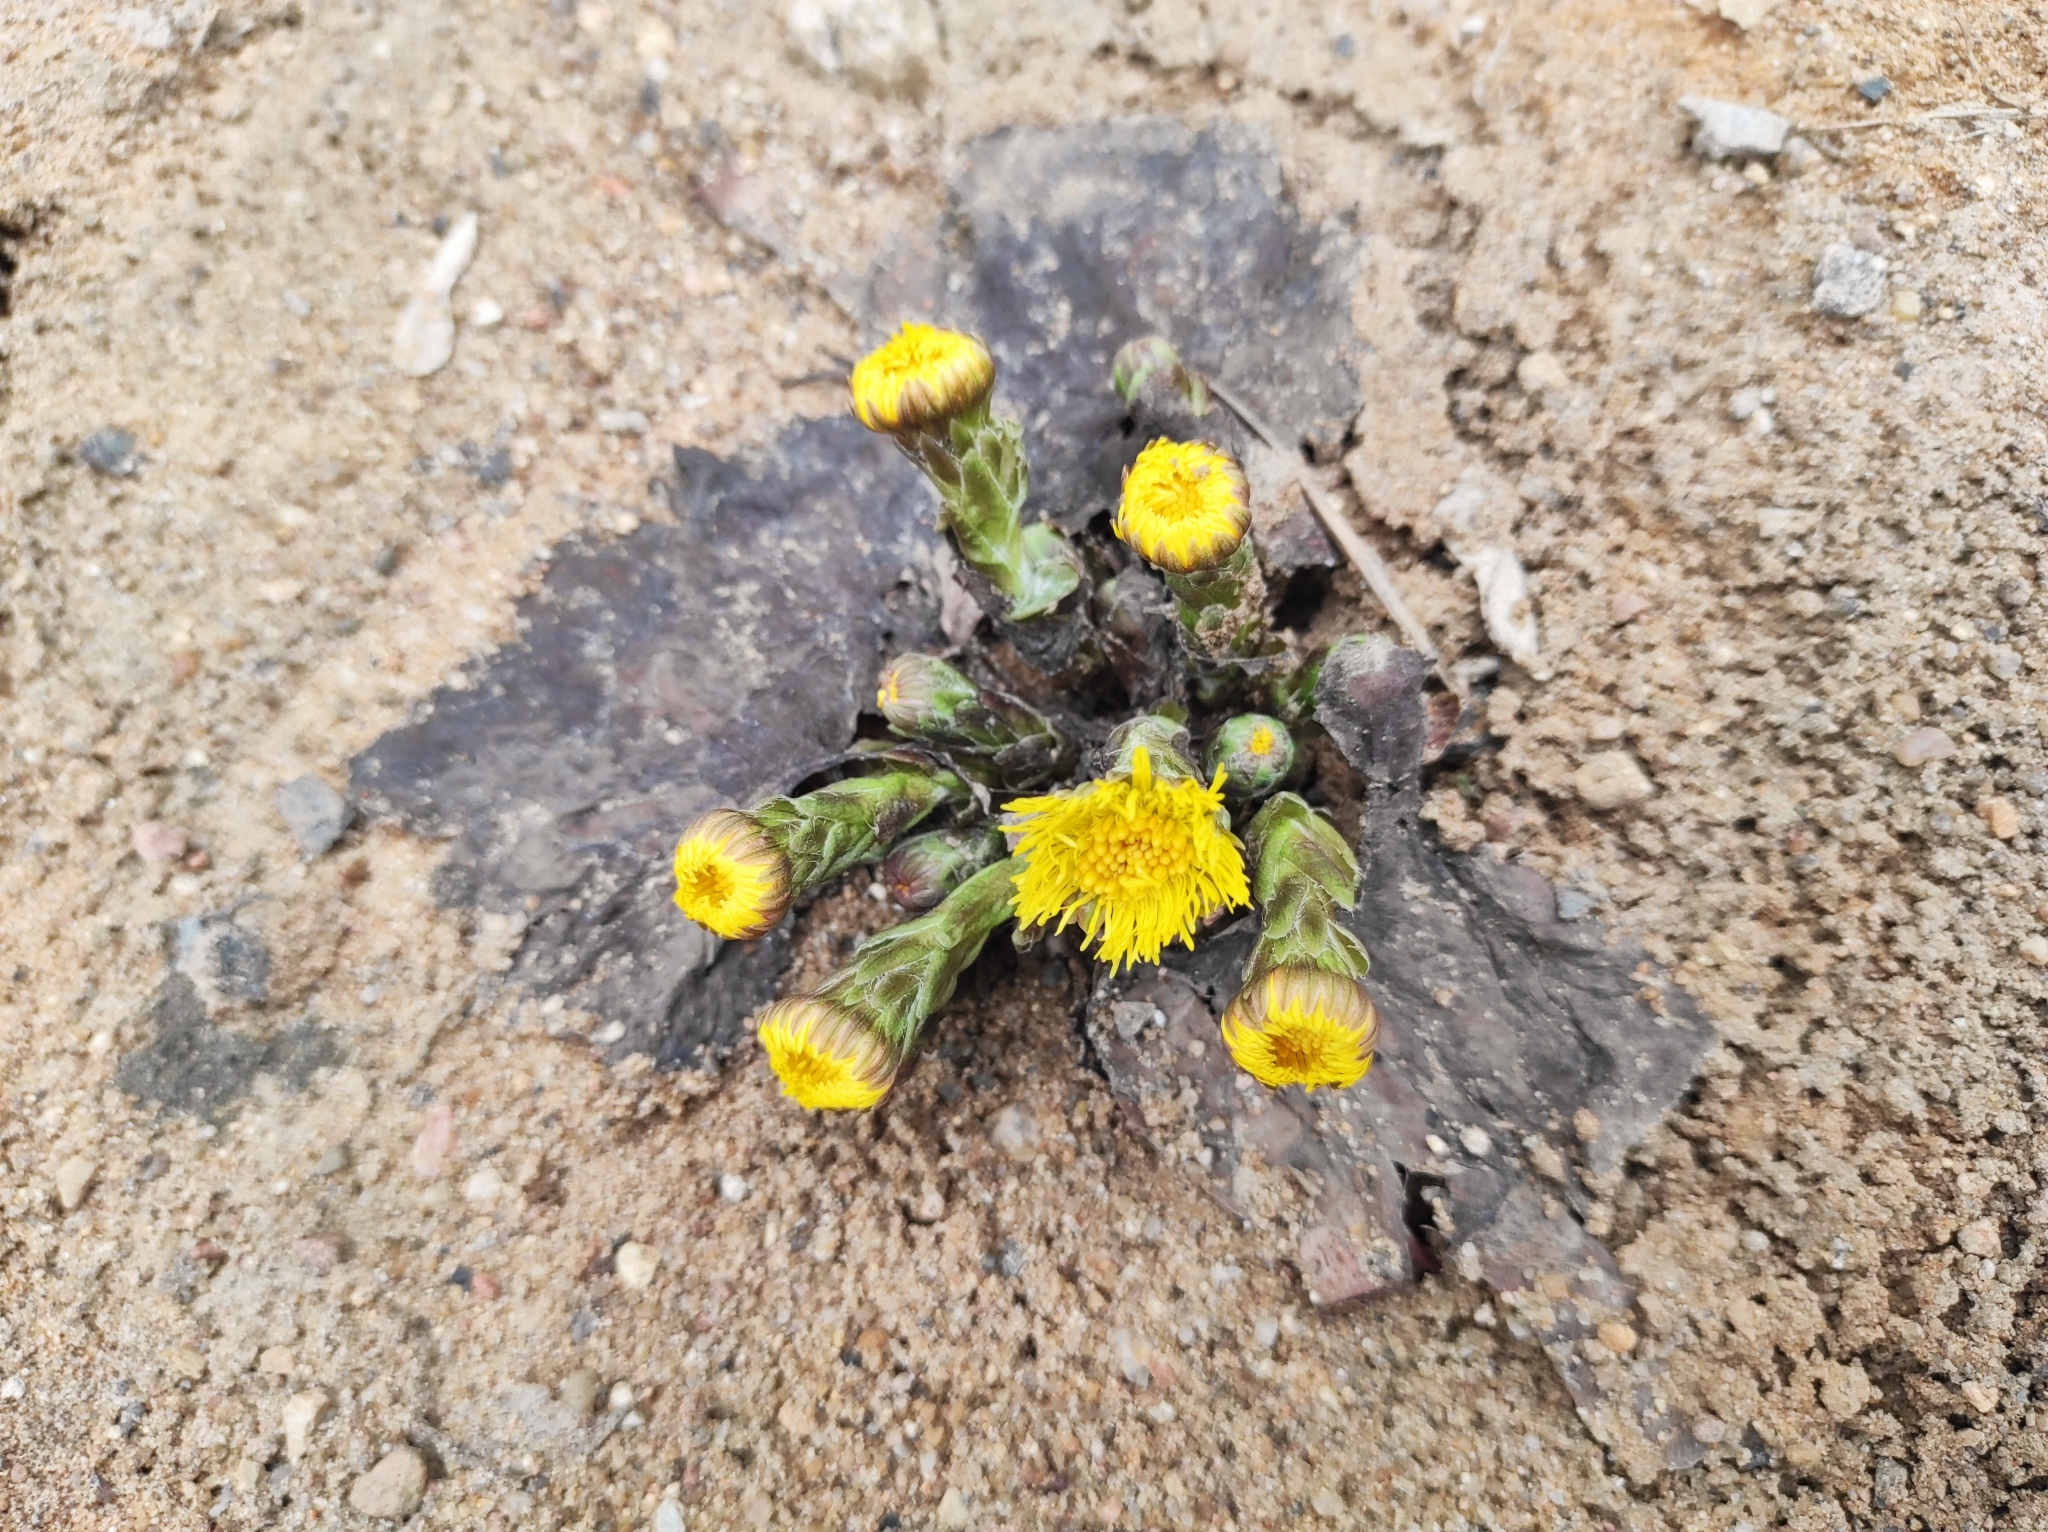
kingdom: Plantae
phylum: Tracheophyta
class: Magnoliopsida
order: Asterales
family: Asteraceae
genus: Tussilago
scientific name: Tussilago farfara
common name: Coltsfoot
